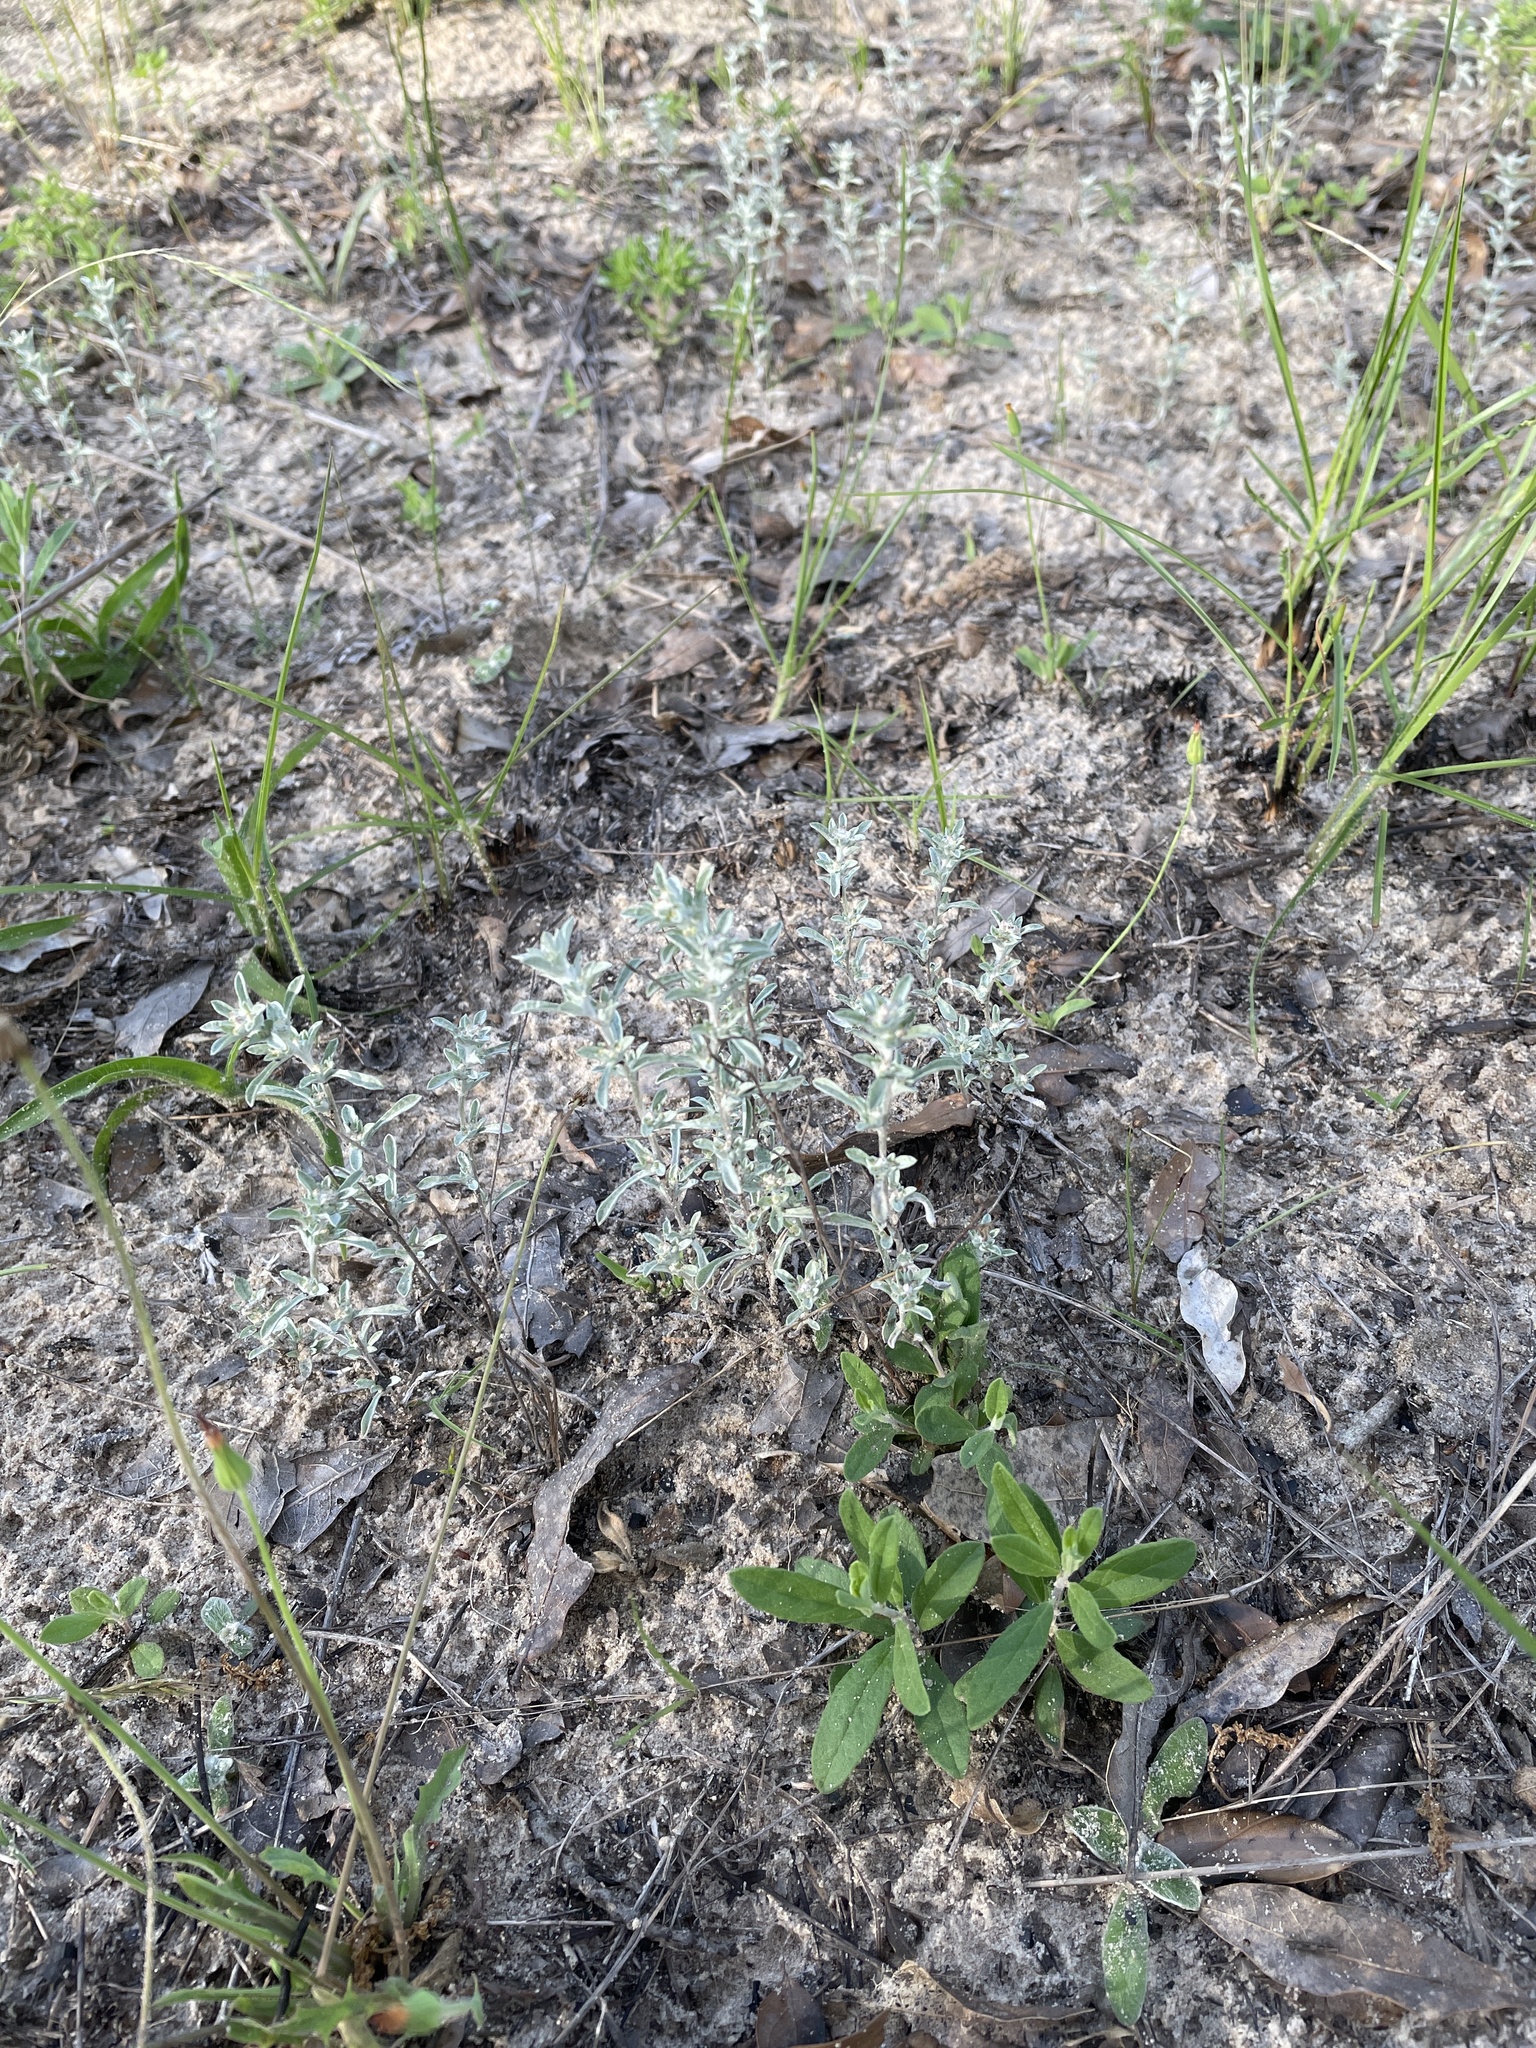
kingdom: Plantae
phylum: Tracheophyta
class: Magnoliopsida
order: Asterales
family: Asteraceae
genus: Diaperia
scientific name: Diaperia candida
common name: Silver rabbit-tobacco
